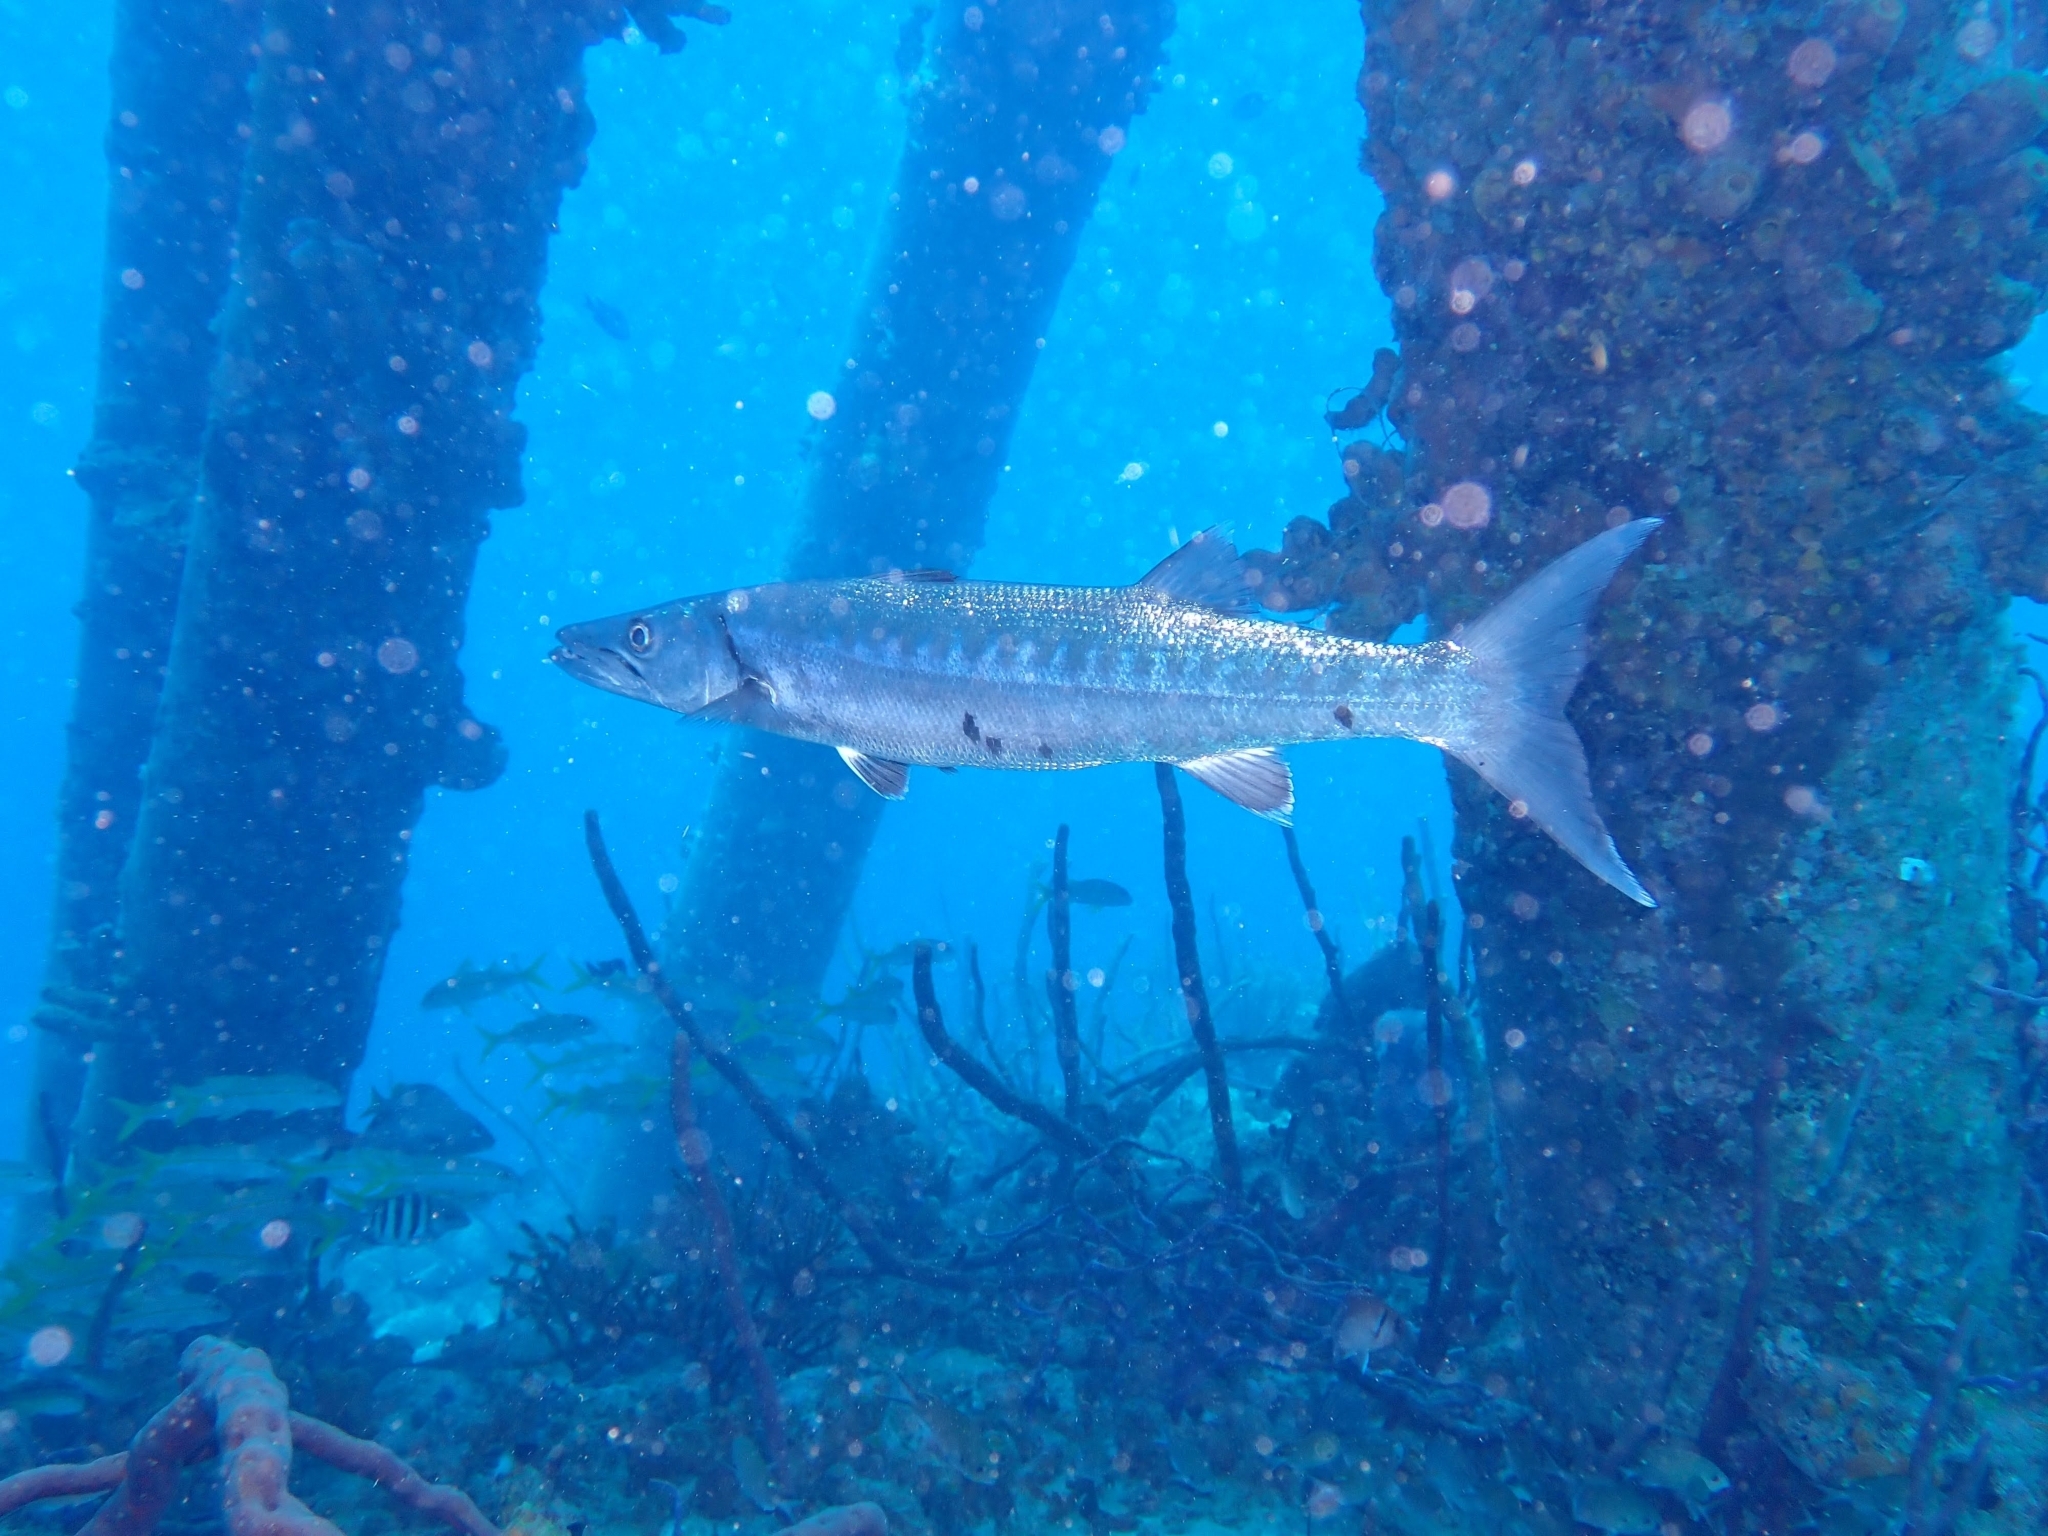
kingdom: Animalia
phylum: Chordata
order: Perciformes
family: Sphyraenidae
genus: Sphyraena
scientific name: Sphyraena barracuda
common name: Great barracuda
